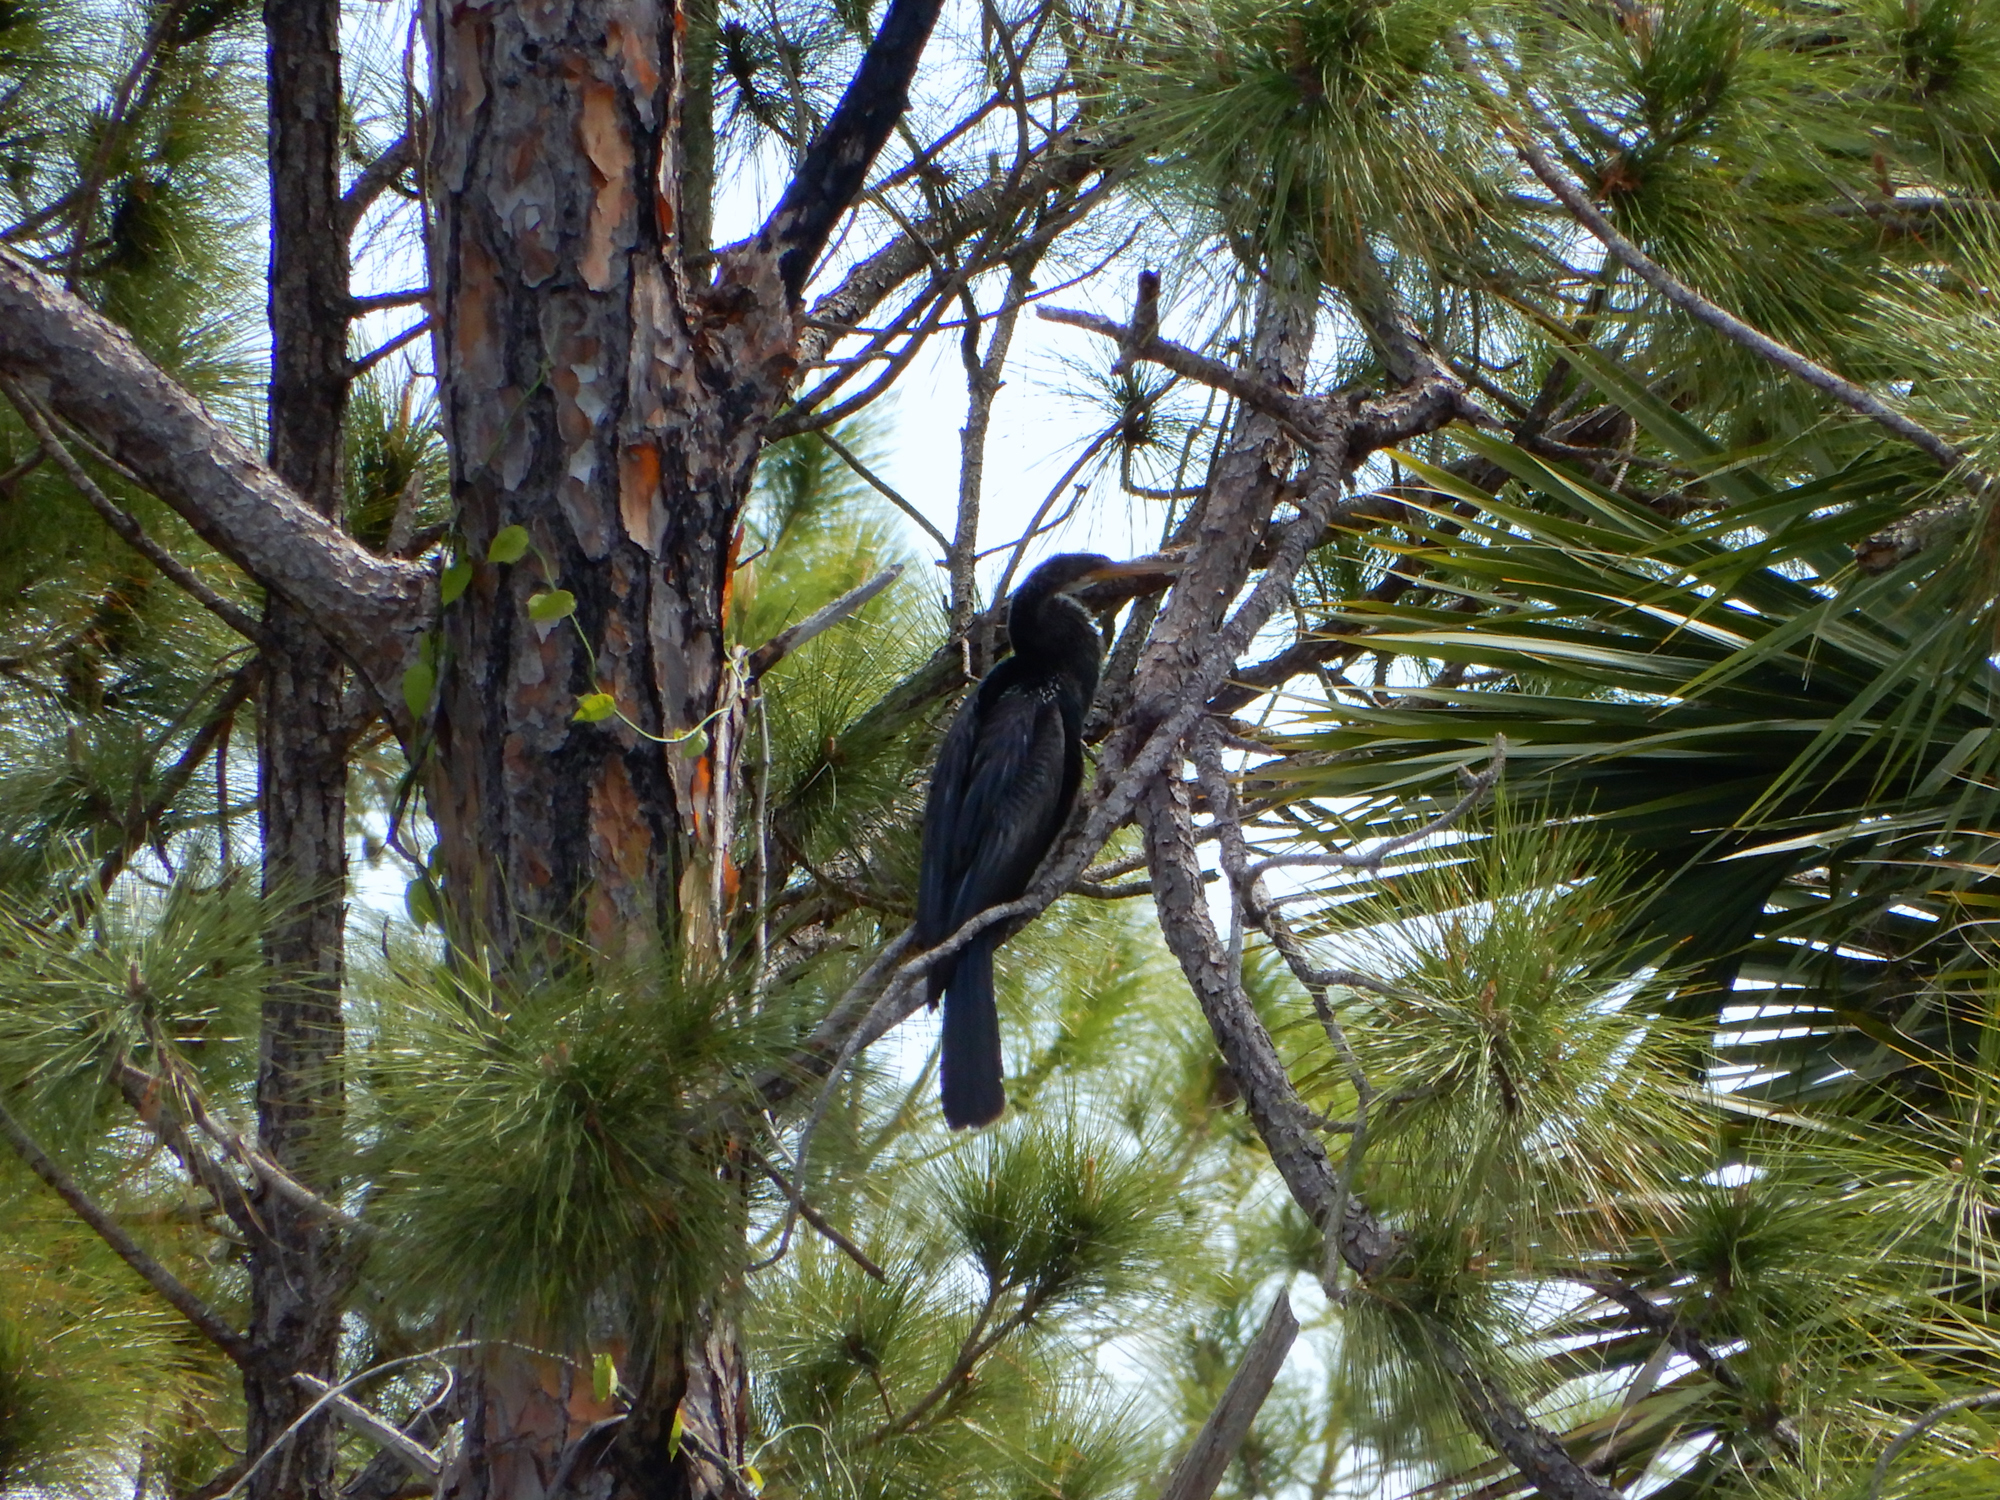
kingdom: Animalia
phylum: Chordata
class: Aves
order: Suliformes
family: Anhingidae
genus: Anhinga
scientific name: Anhinga anhinga
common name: Anhinga
